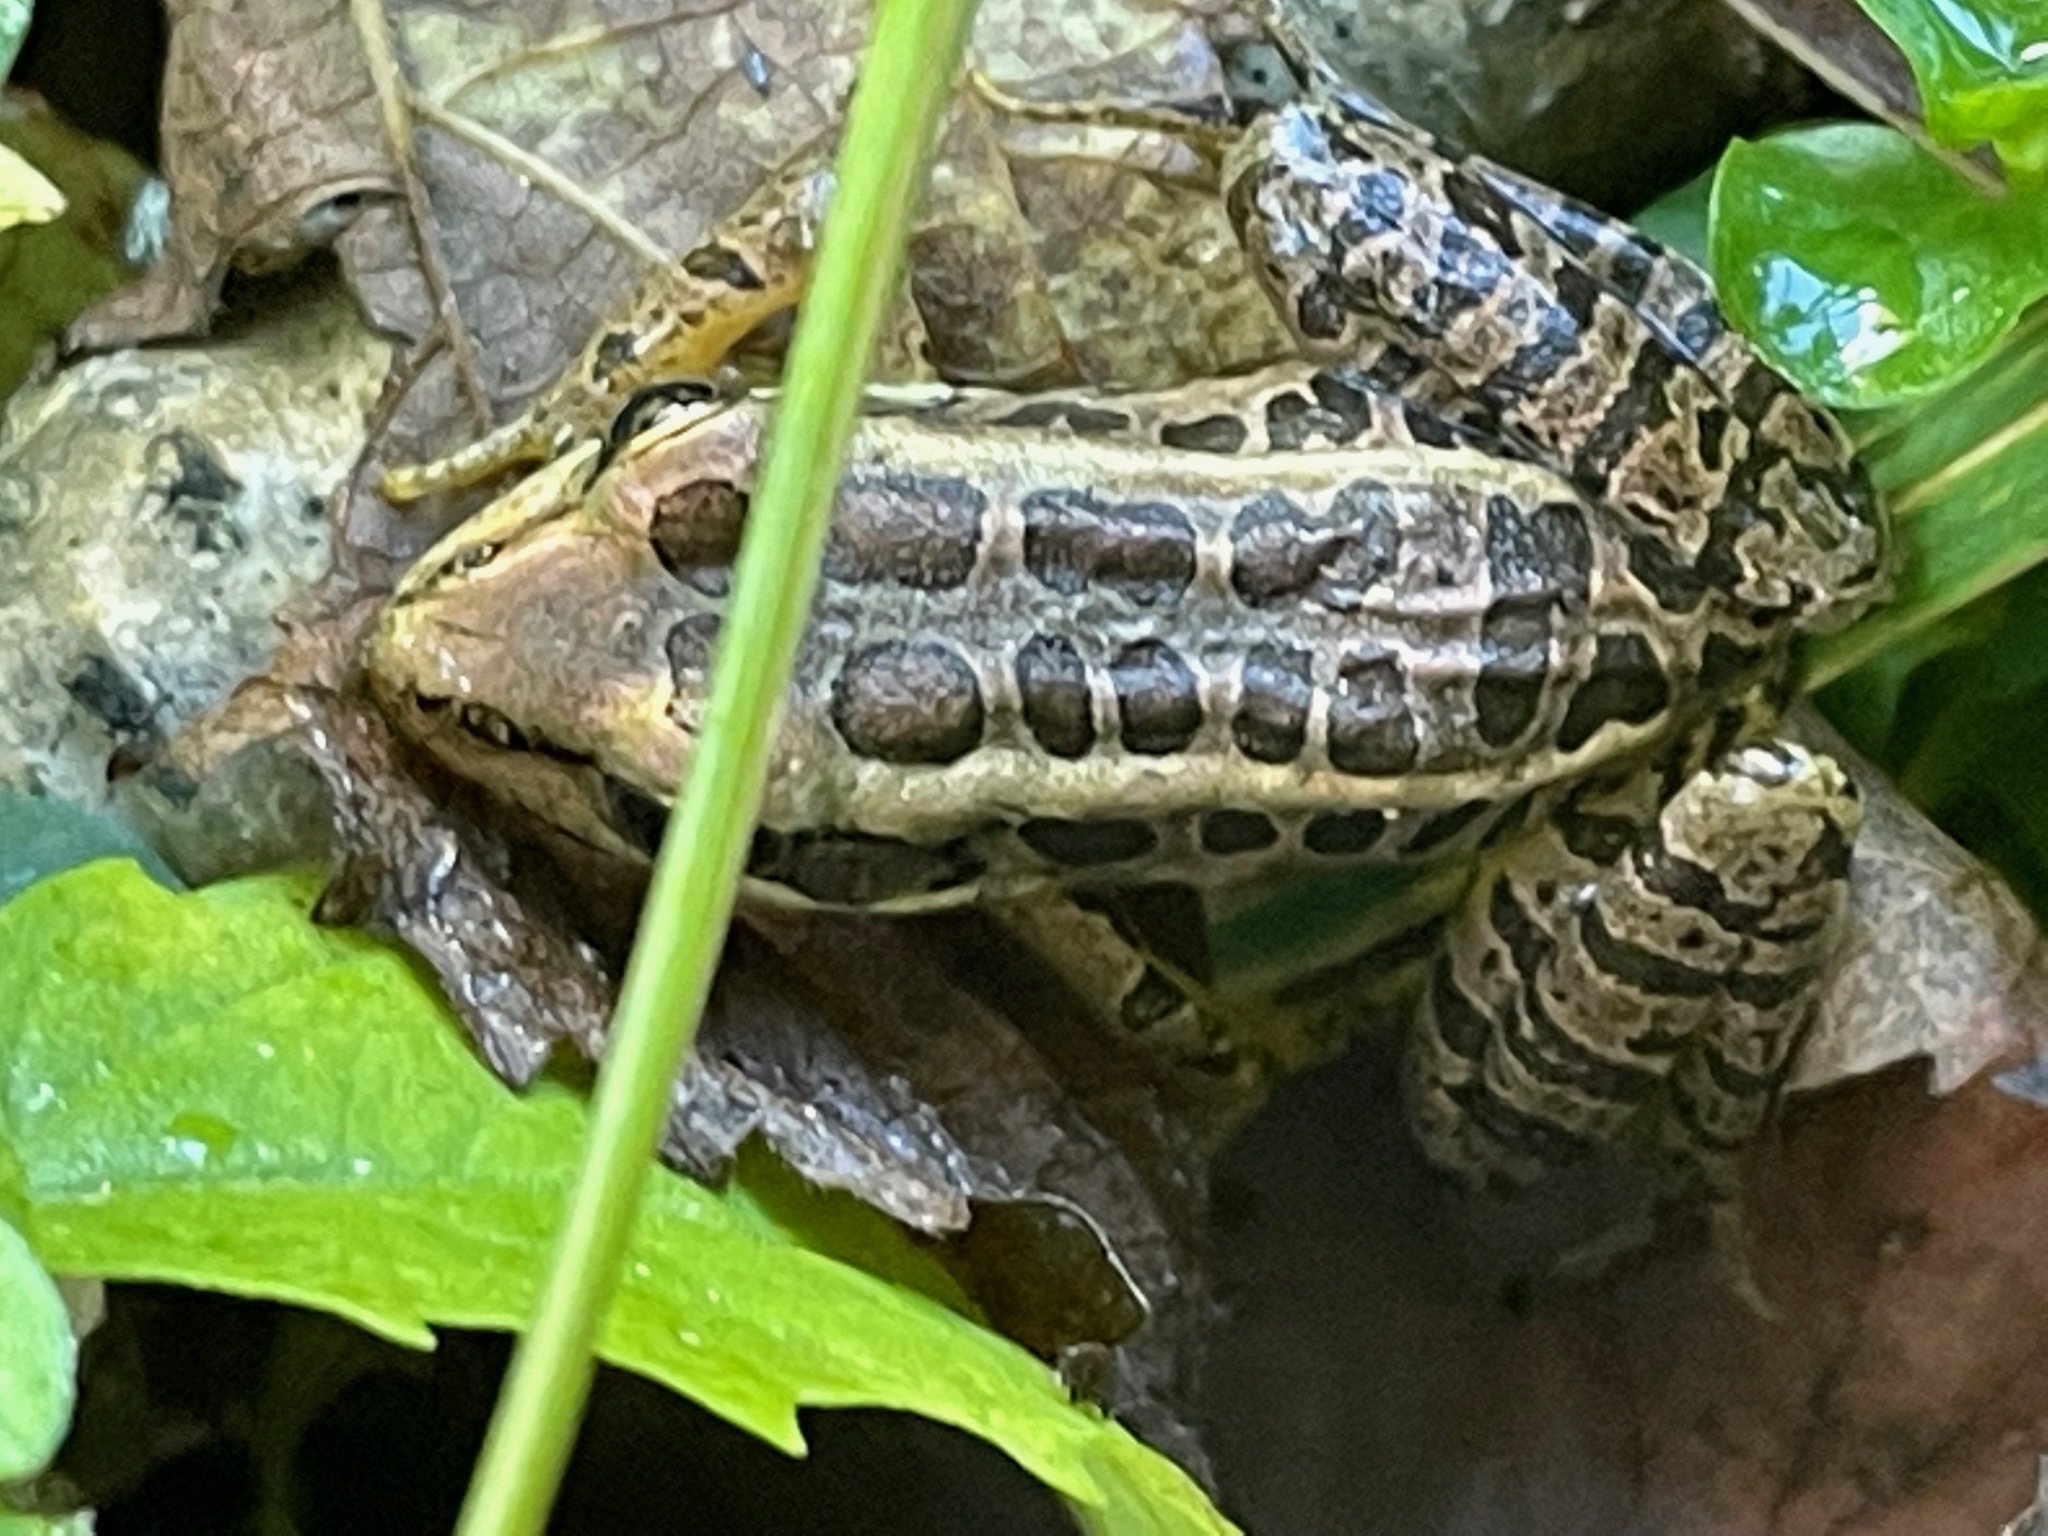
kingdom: Animalia
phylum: Chordata
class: Amphibia
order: Anura
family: Ranidae
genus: Lithobates
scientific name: Lithobates palustris
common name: Pickerel frog
